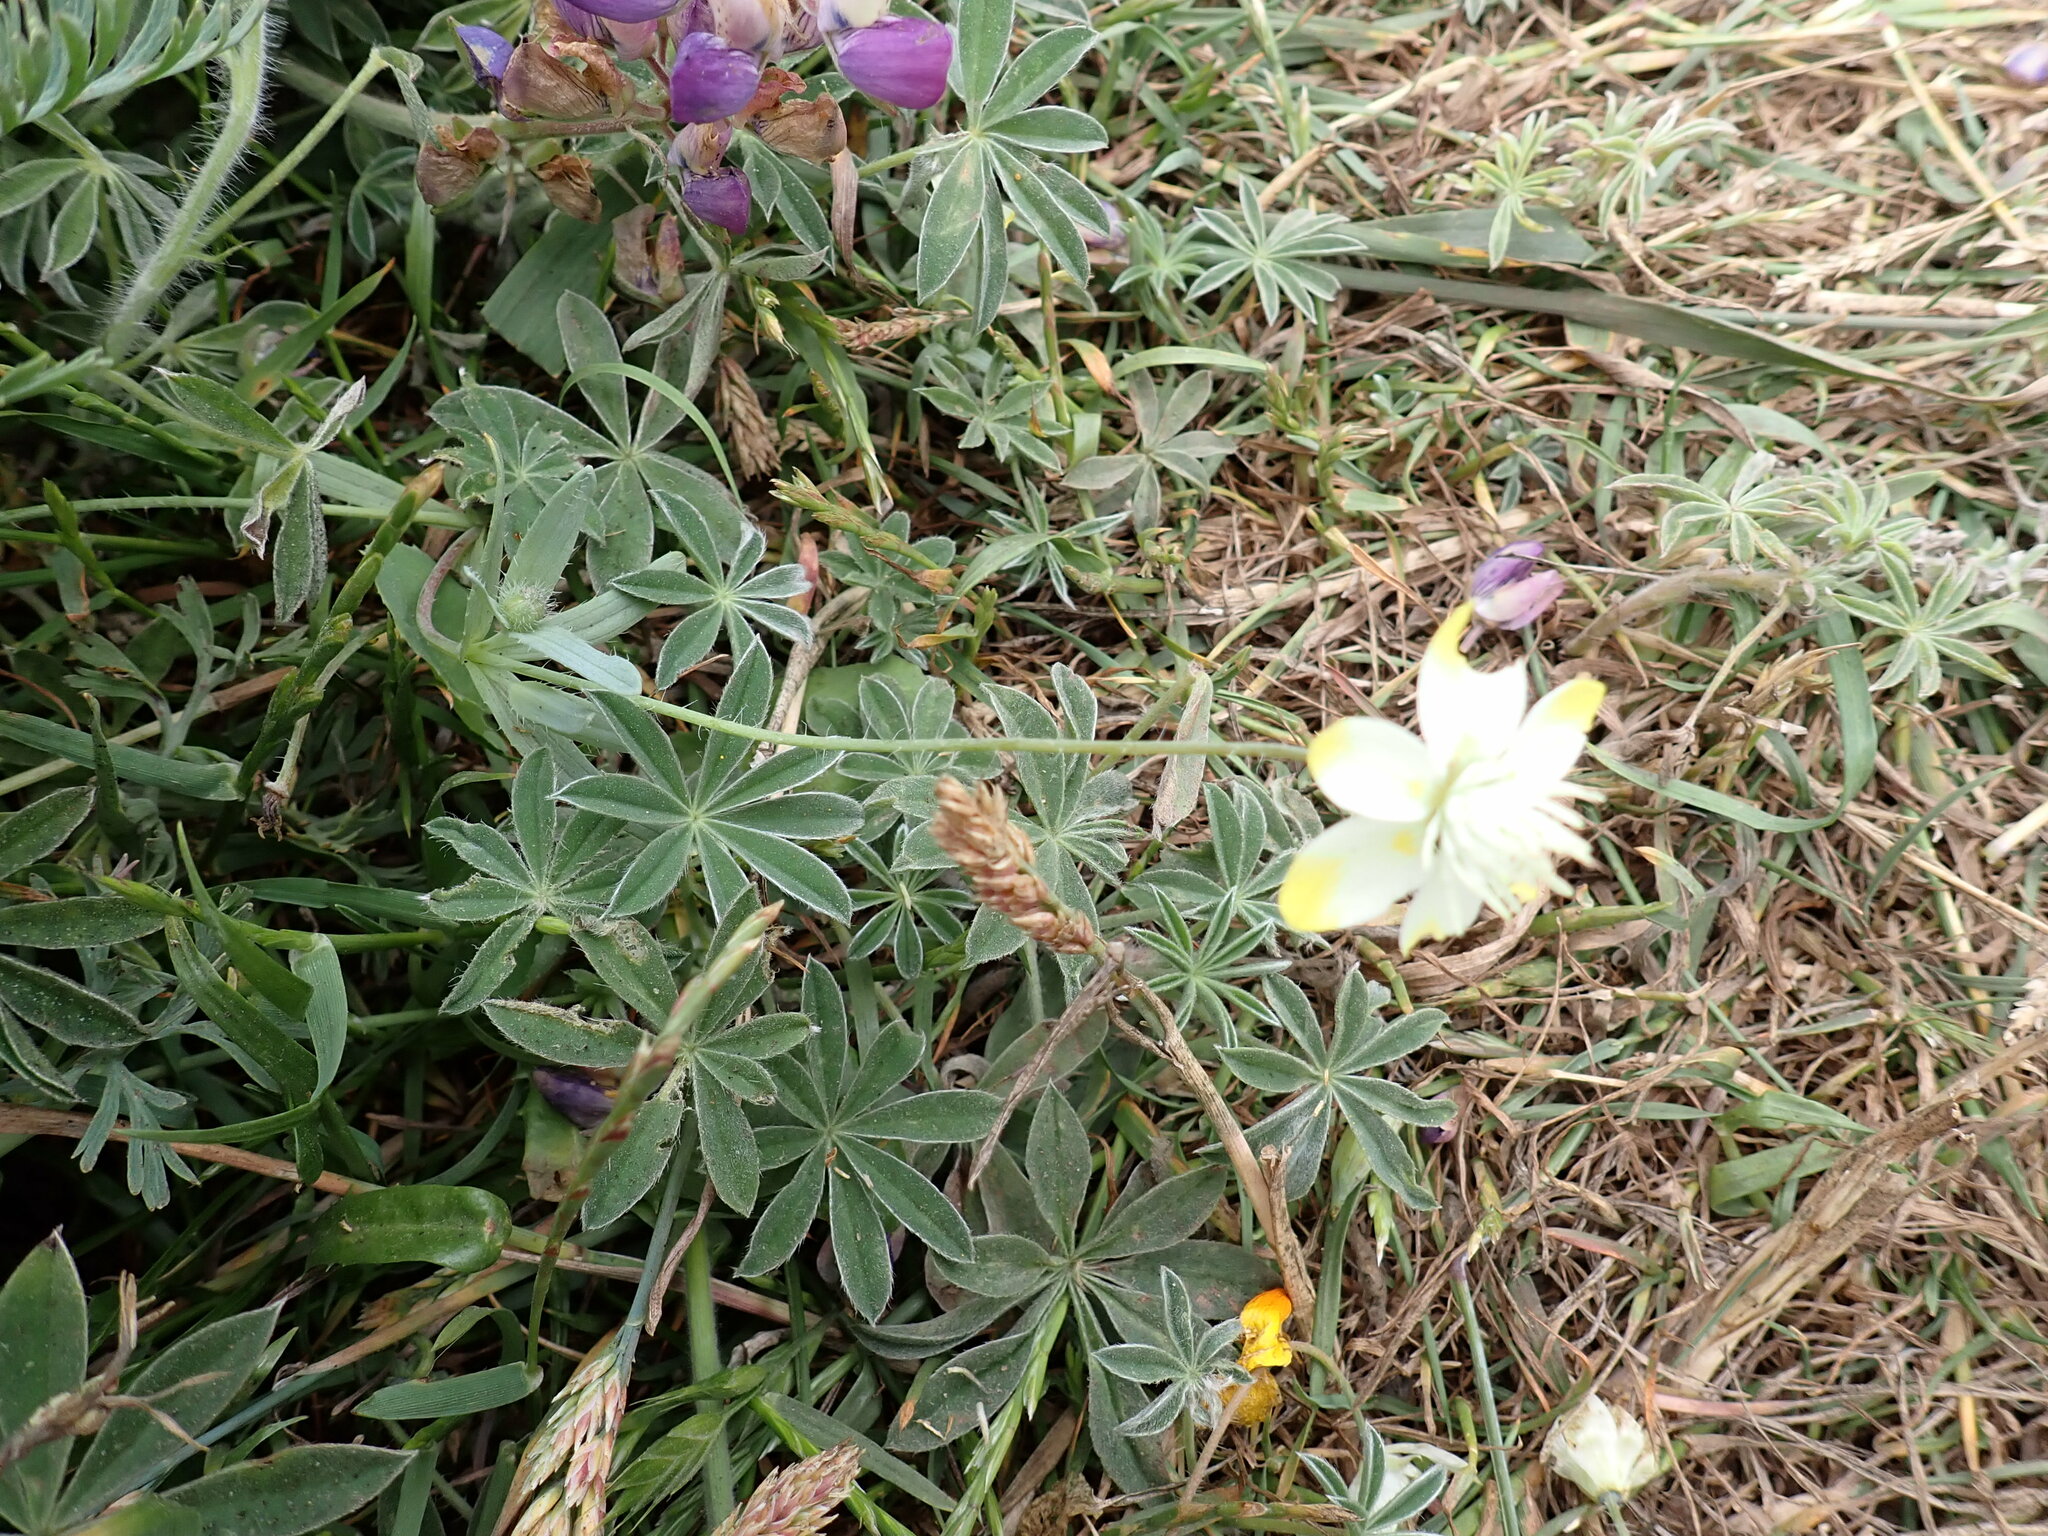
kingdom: Plantae
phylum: Tracheophyta
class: Magnoliopsida
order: Ranunculales
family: Papaveraceae
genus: Platystemon
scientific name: Platystemon californicus
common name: Cream-cups
